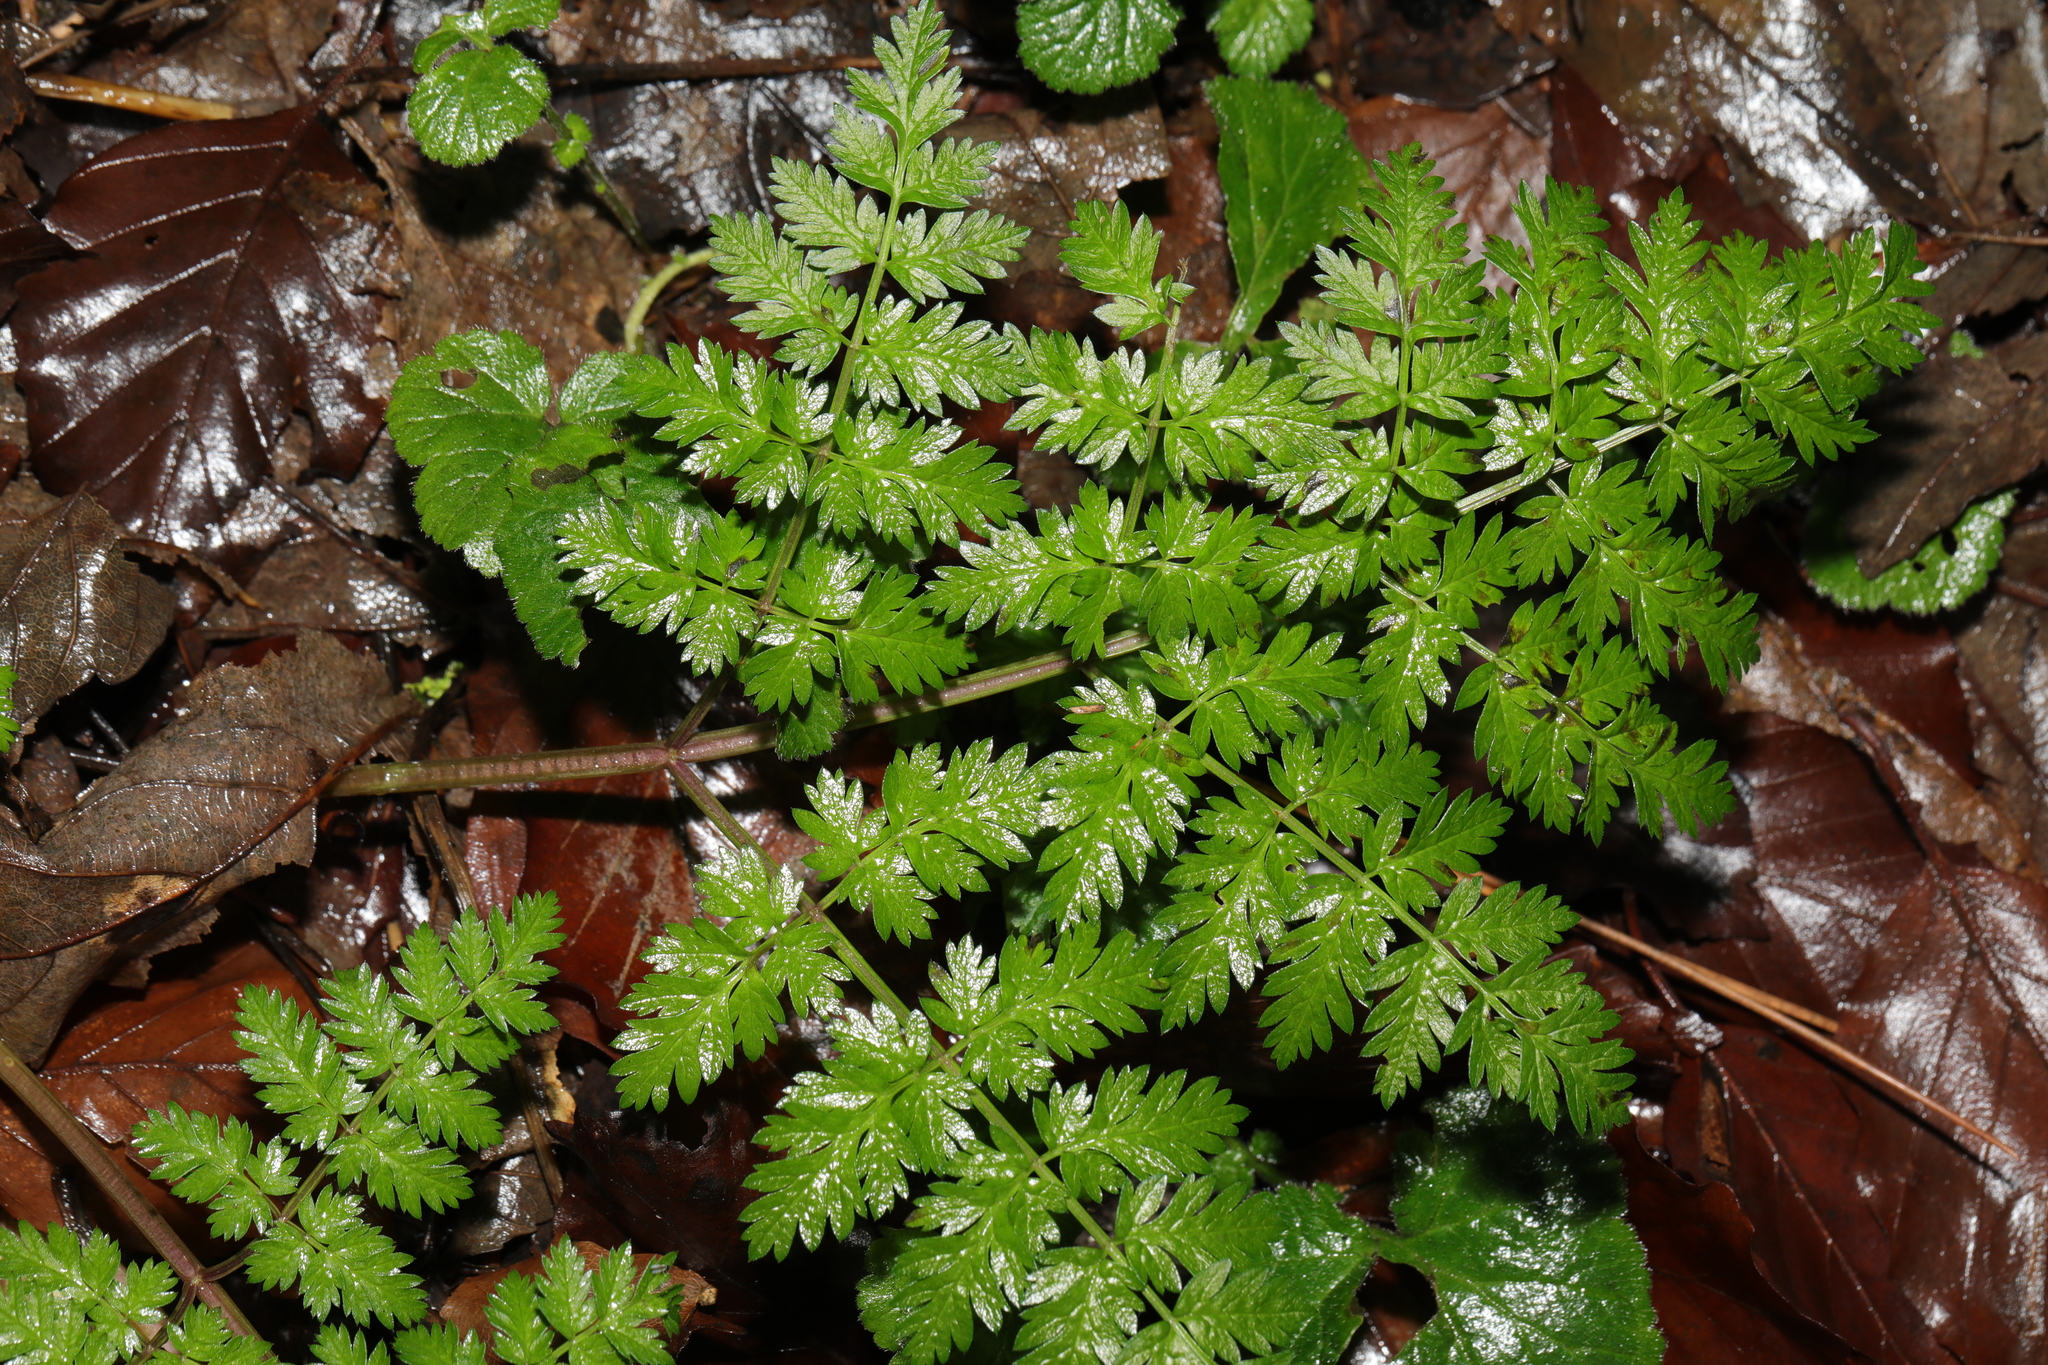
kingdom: Plantae
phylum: Tracheophyta
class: Magnoliopsida
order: Apiales
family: Apiaceae
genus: Anthriscus
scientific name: Anthriscus sylvestris
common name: Cow parsley
